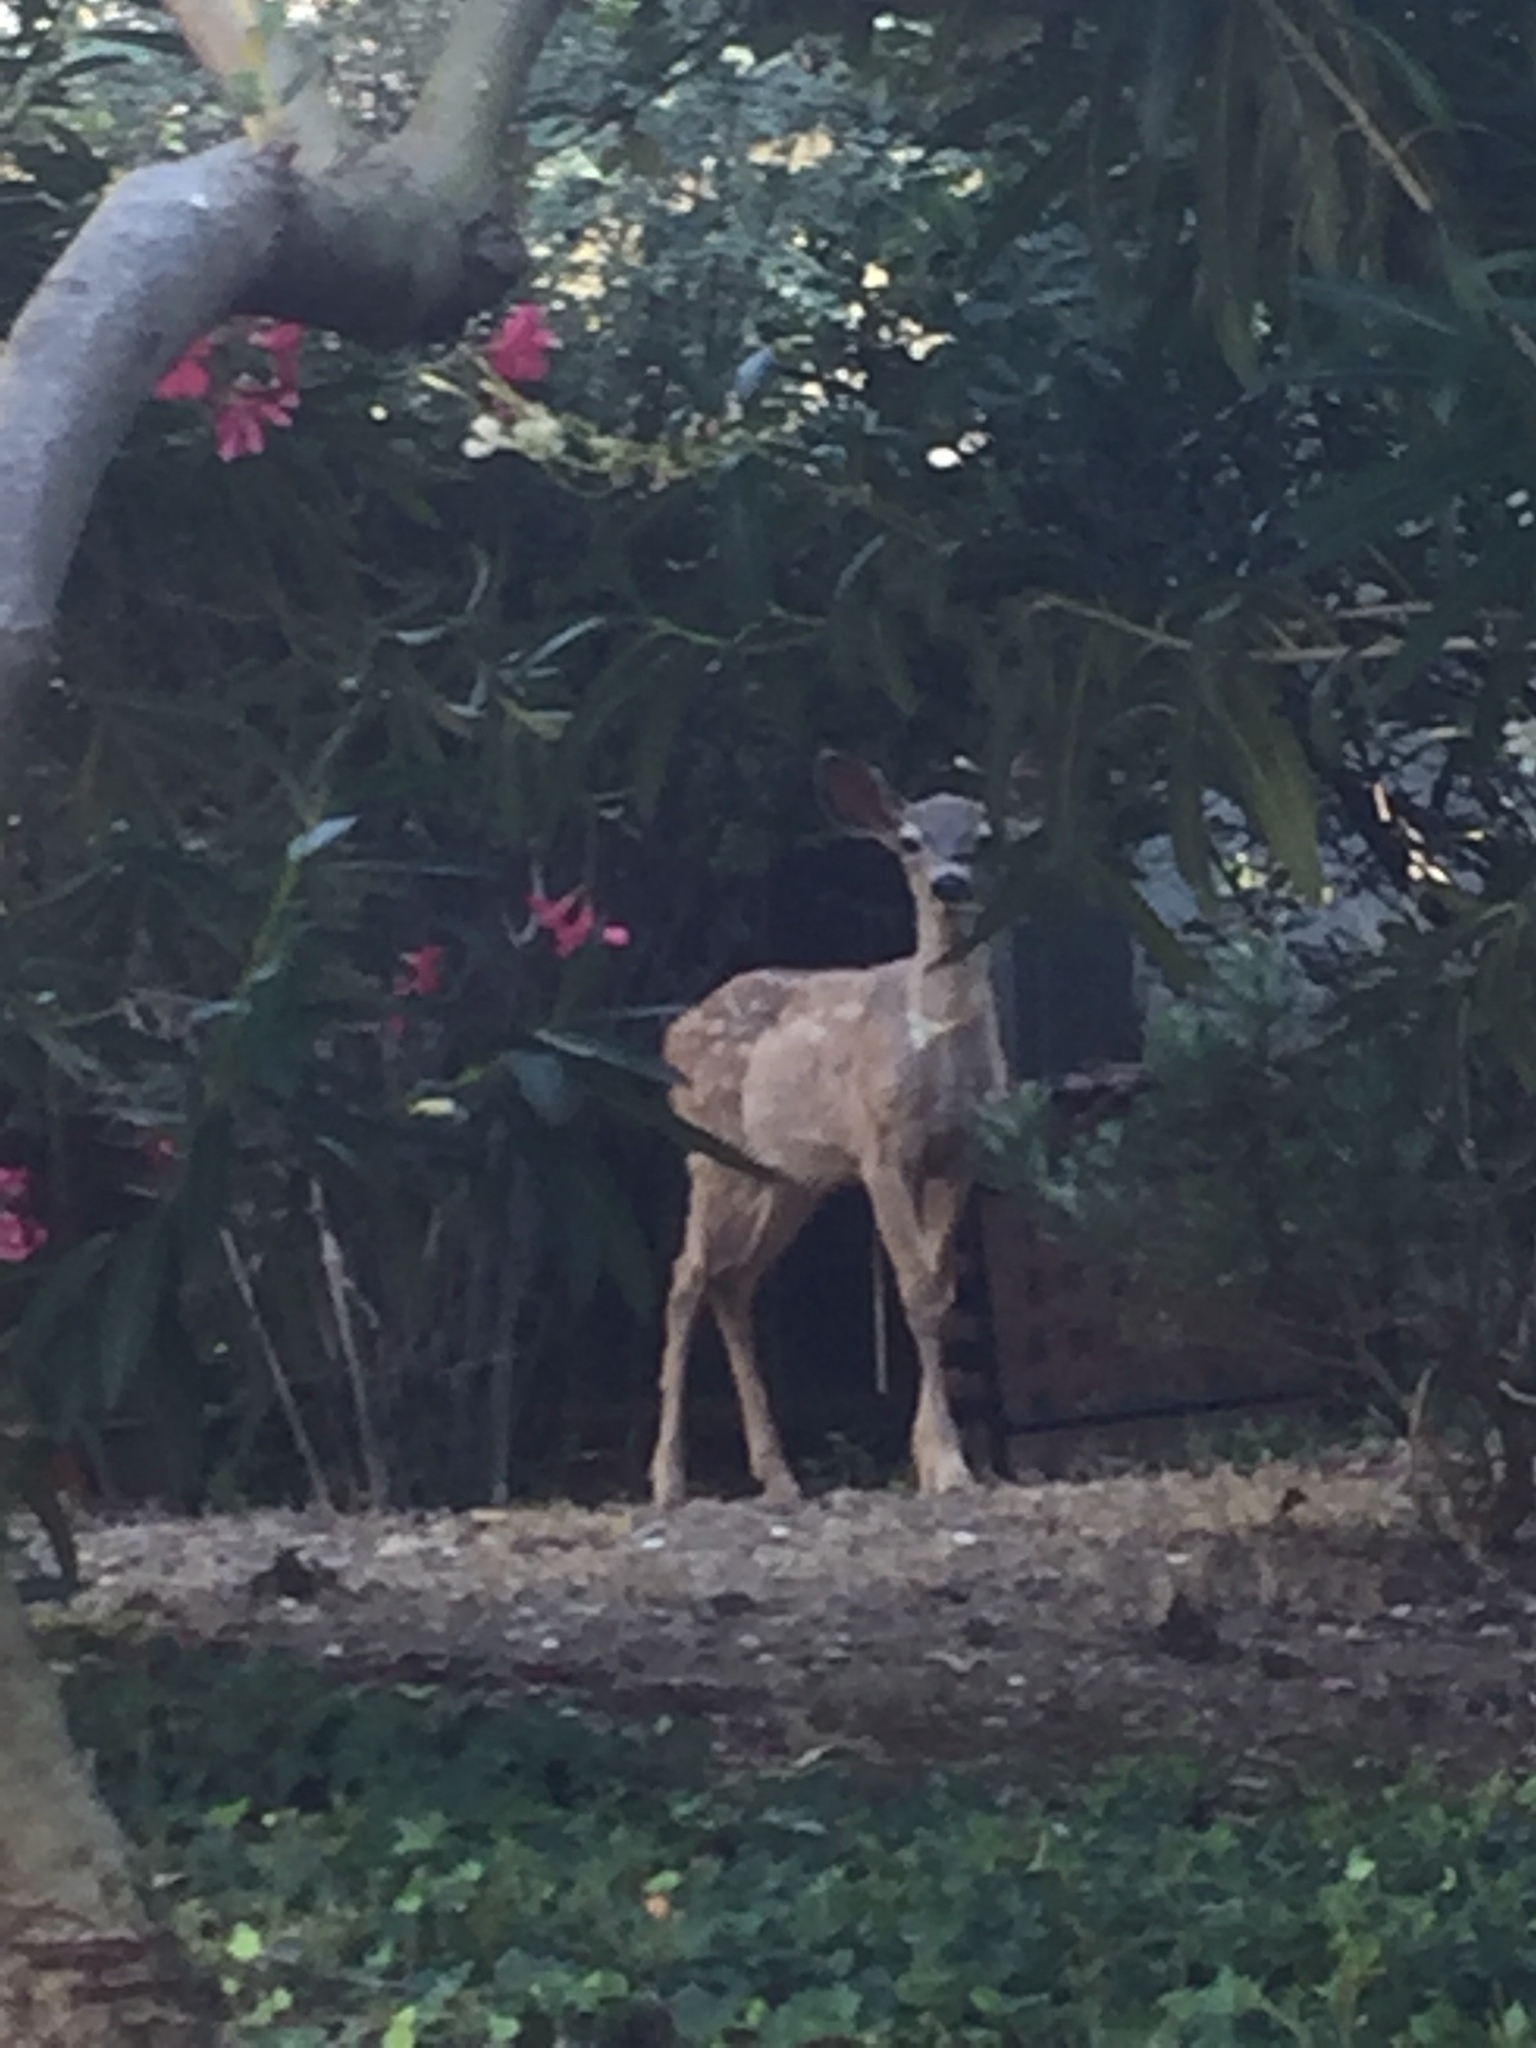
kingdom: Animalia
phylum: Chordata
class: Mammalia
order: Artiodactyla
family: Cervidae
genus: Odocoileus
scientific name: Odocoileus hemionus
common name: Mule deer
